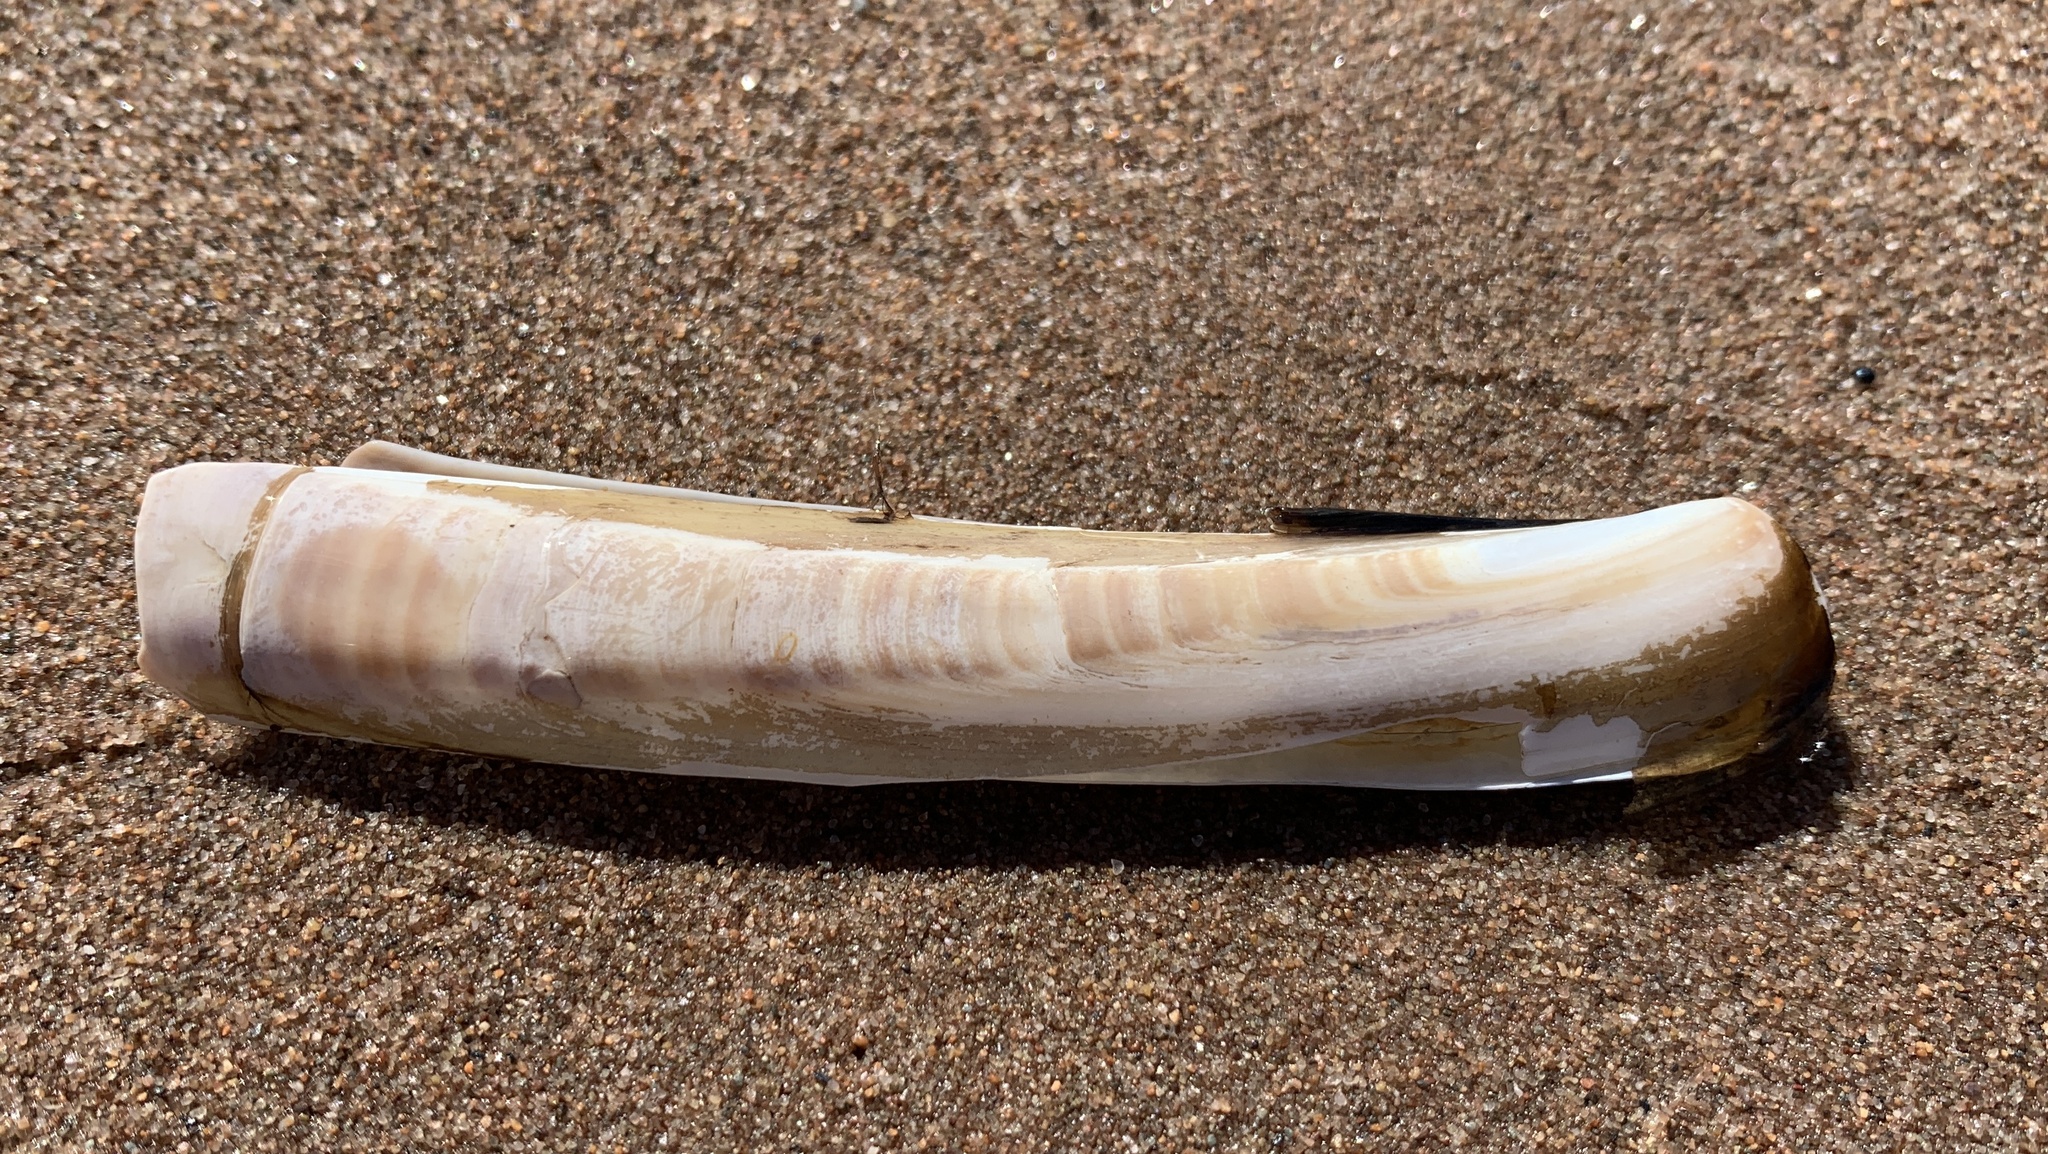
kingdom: Animalia
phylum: Mollusca
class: Bivalvia
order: Adapedonta
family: Pharidae
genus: Ensis
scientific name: Ensis leei
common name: American jack knife clam
